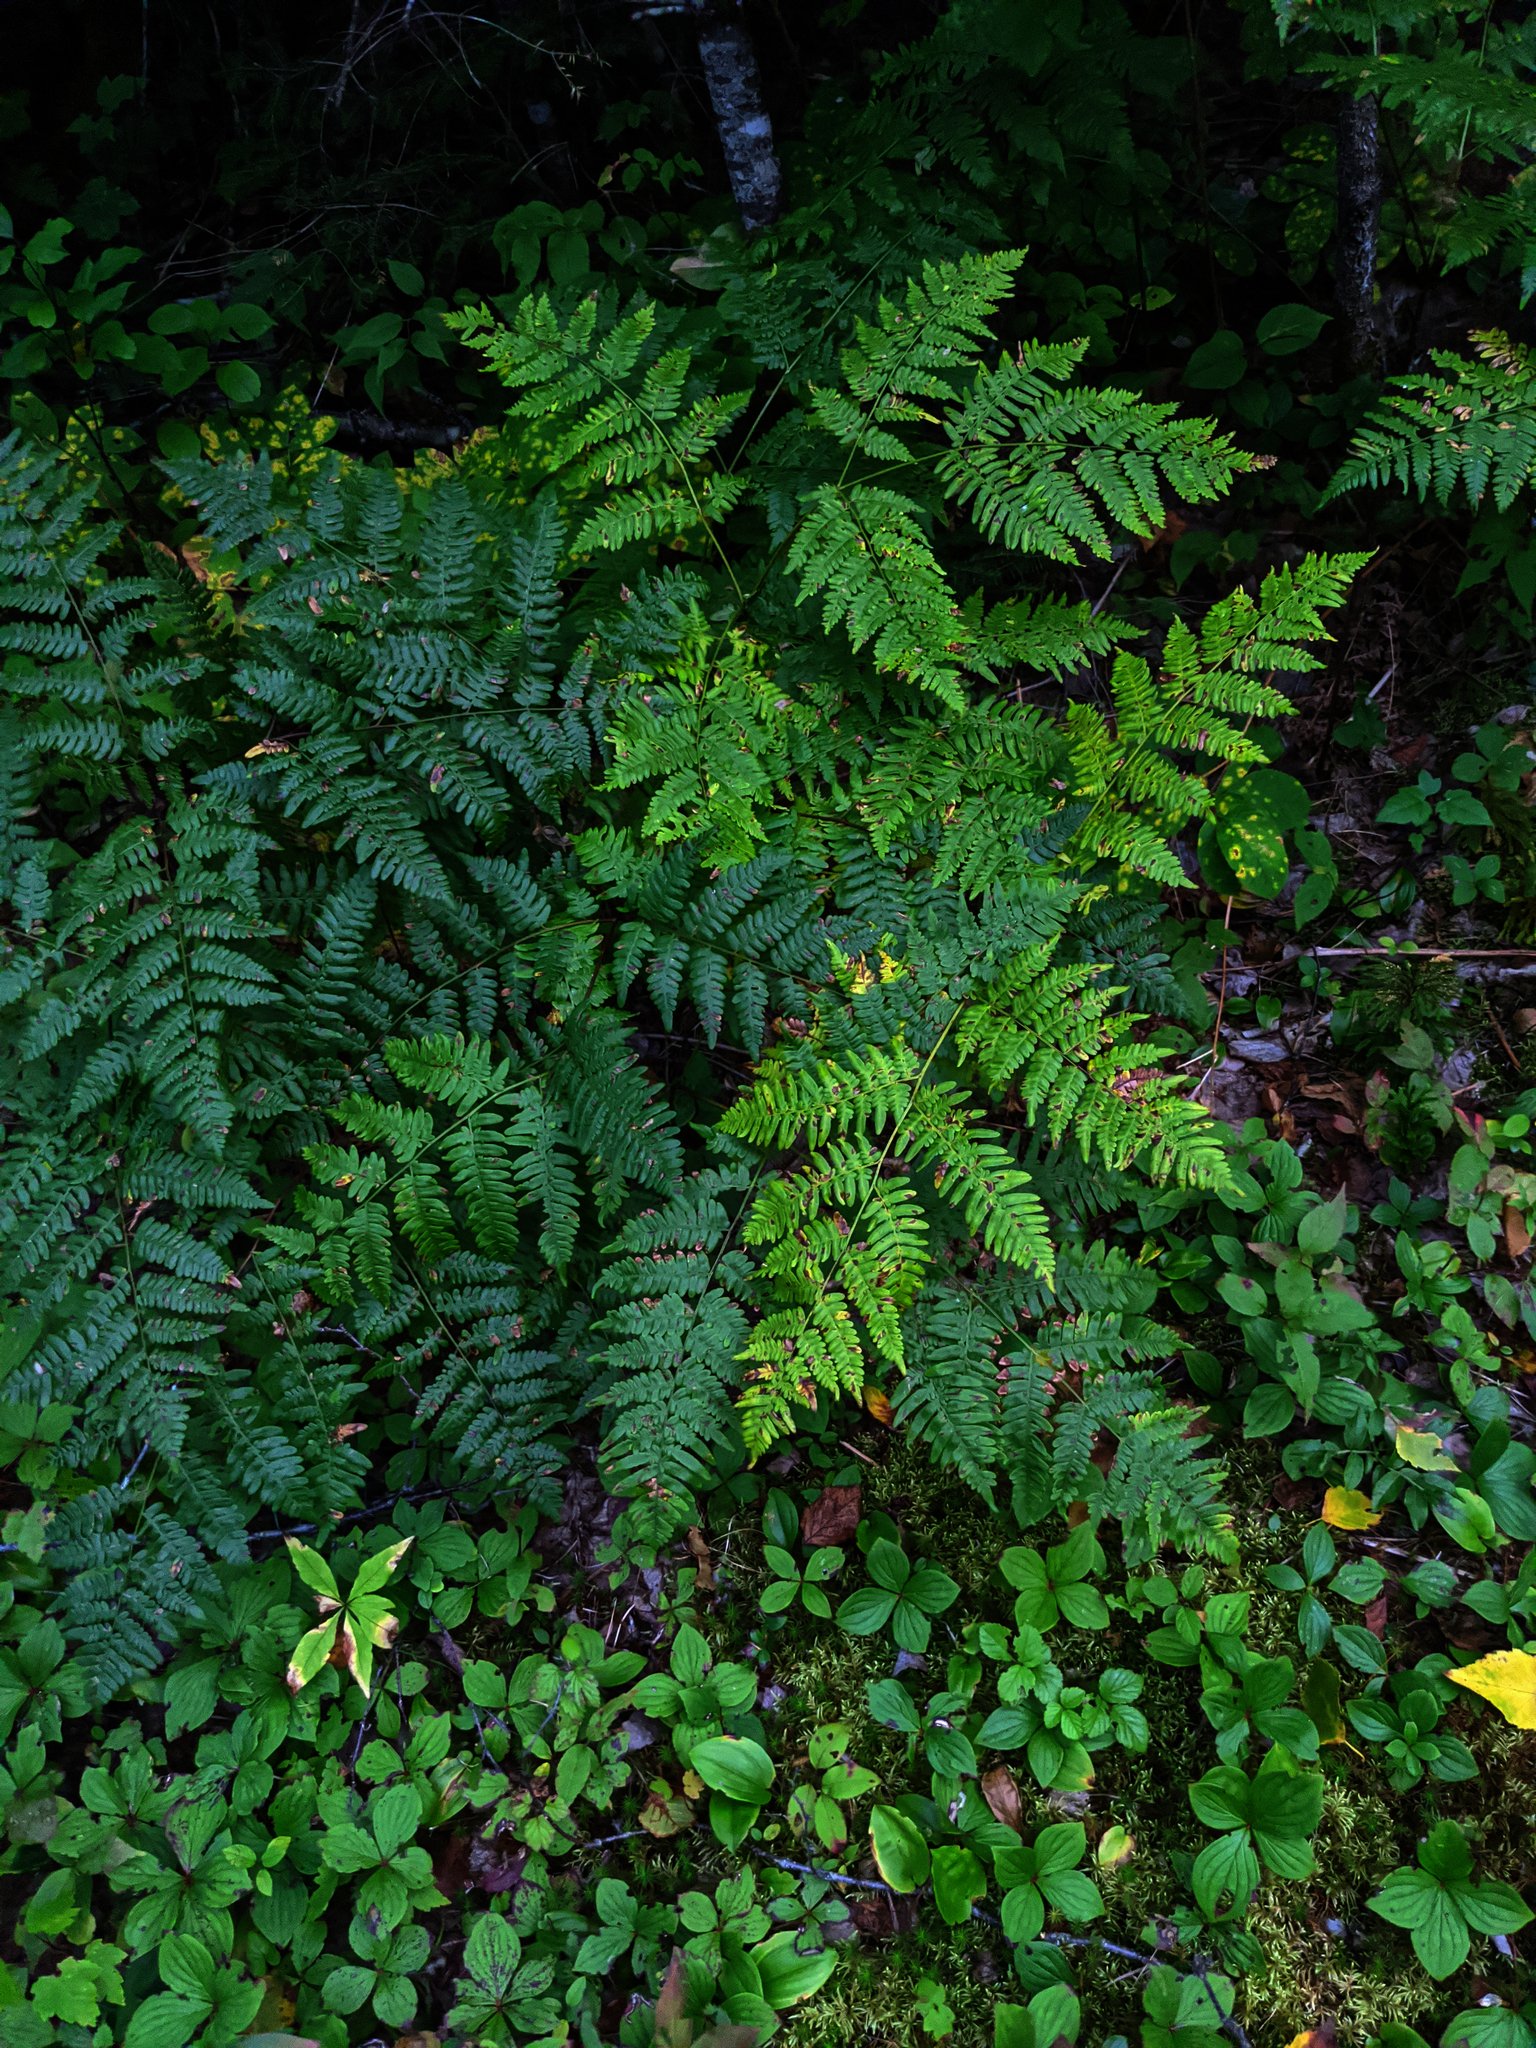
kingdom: Plantae
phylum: Tracheophyta
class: Polypodiopsida
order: Polypodiales
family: Dennstaedtiaceae
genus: Pteridium
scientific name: Pteridium aquilinum
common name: Bracken
